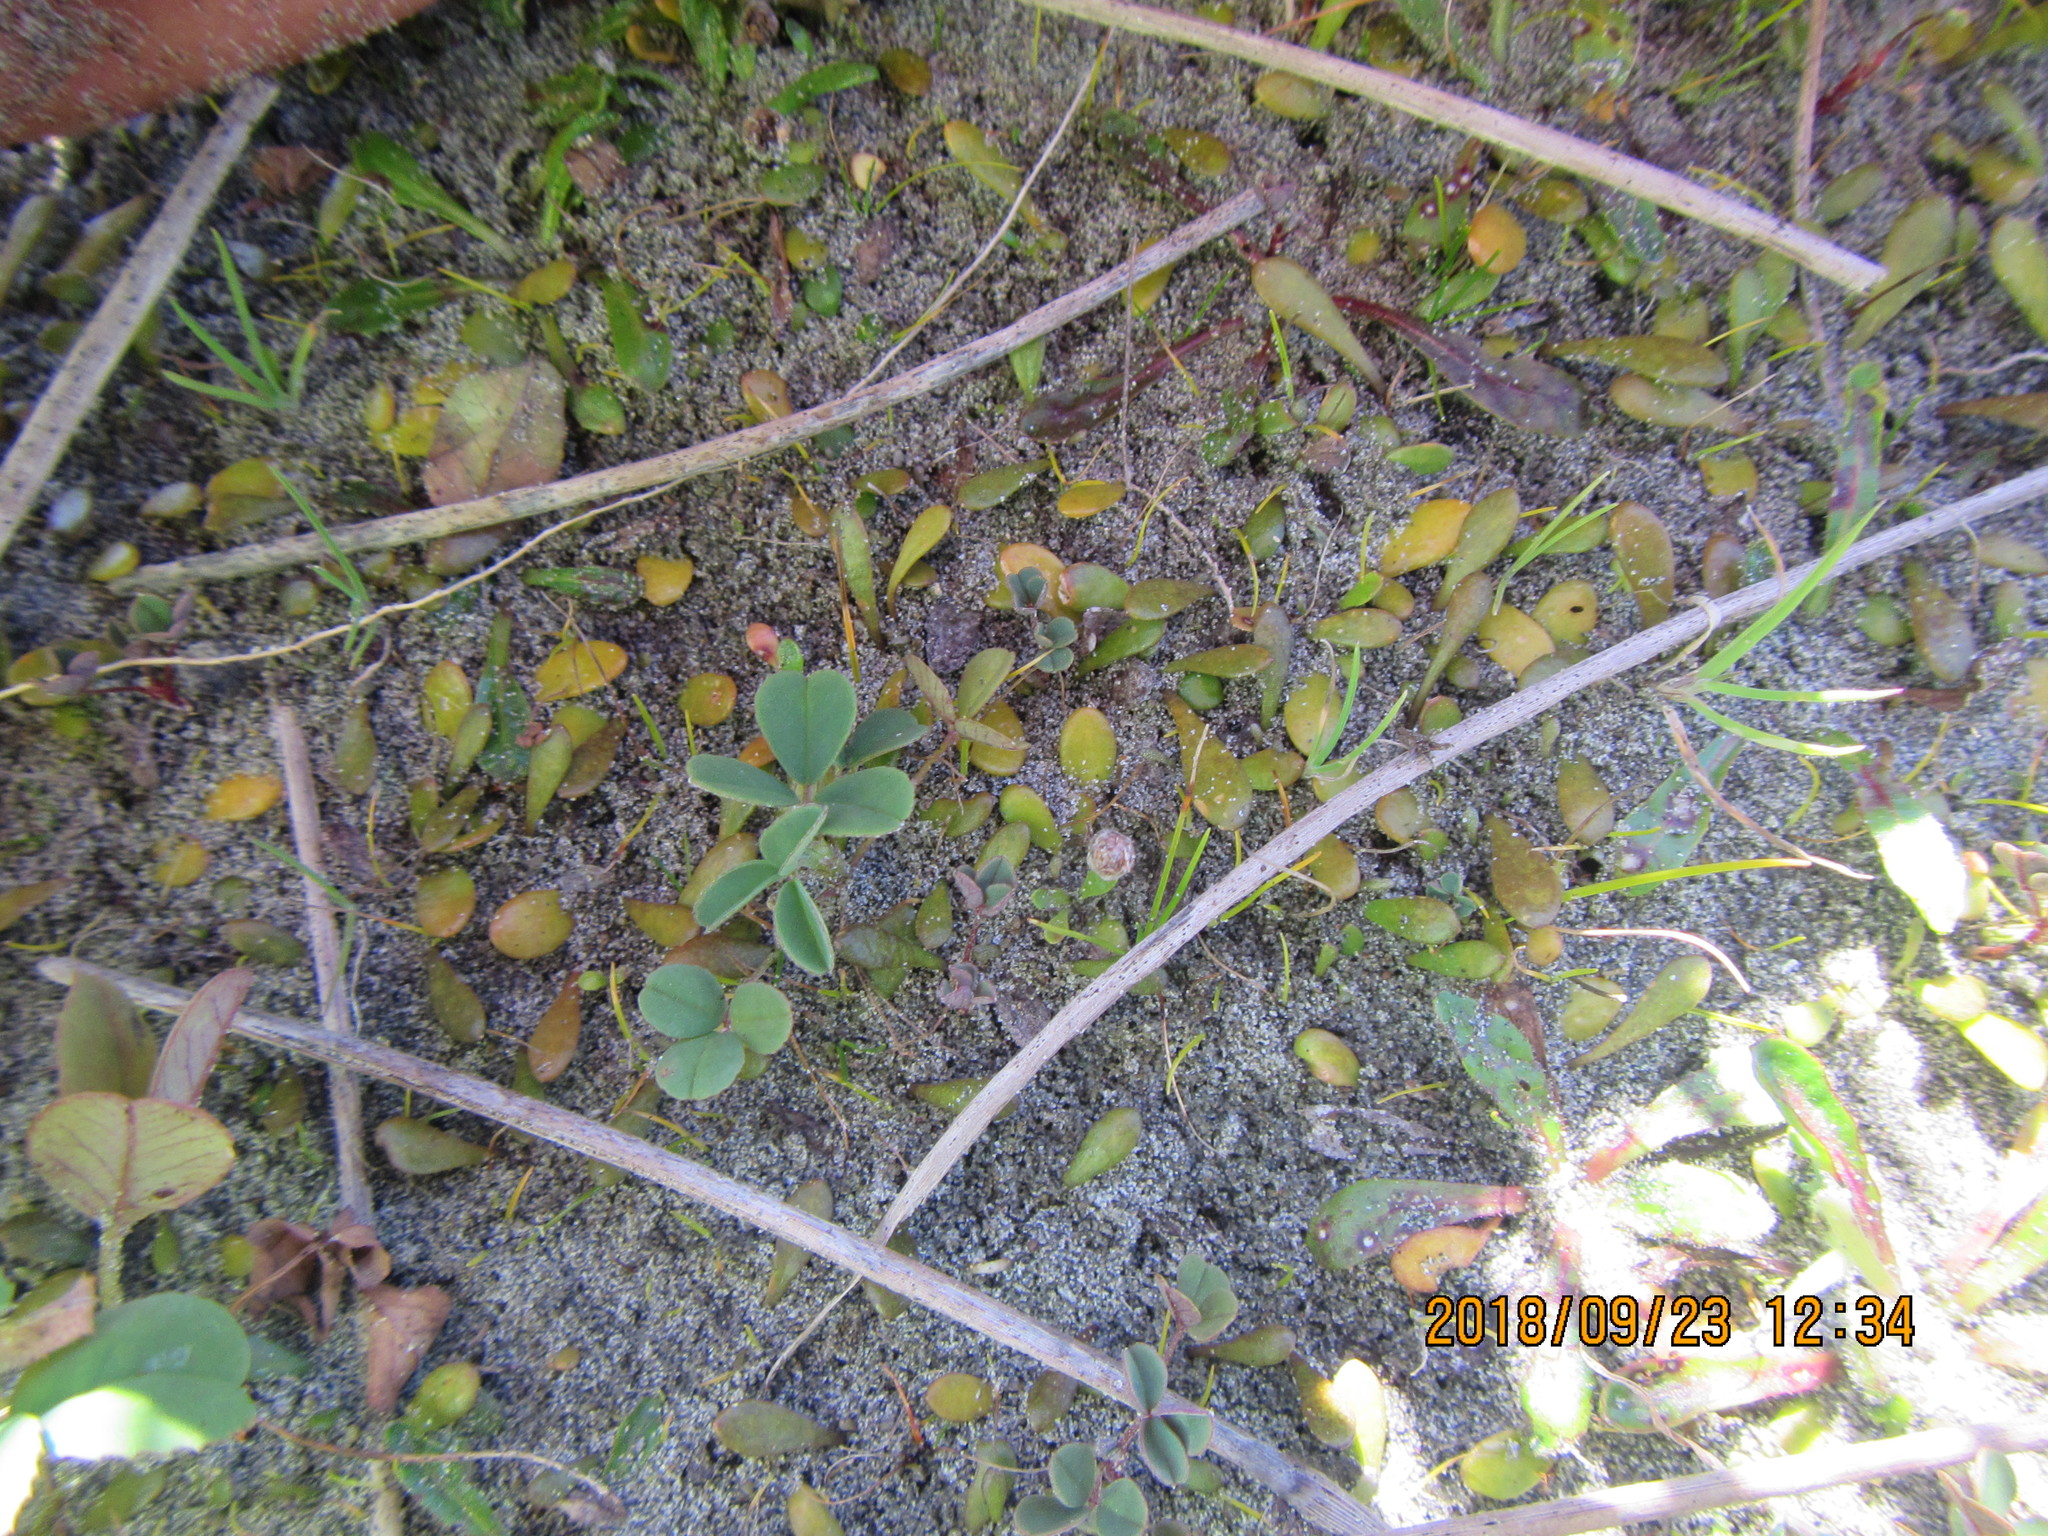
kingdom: Plantae
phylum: Tracheophyta
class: Magnoliopsida
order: Asterales
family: Goodeniaceae
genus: Goodenia
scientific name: Goodenia radicans
